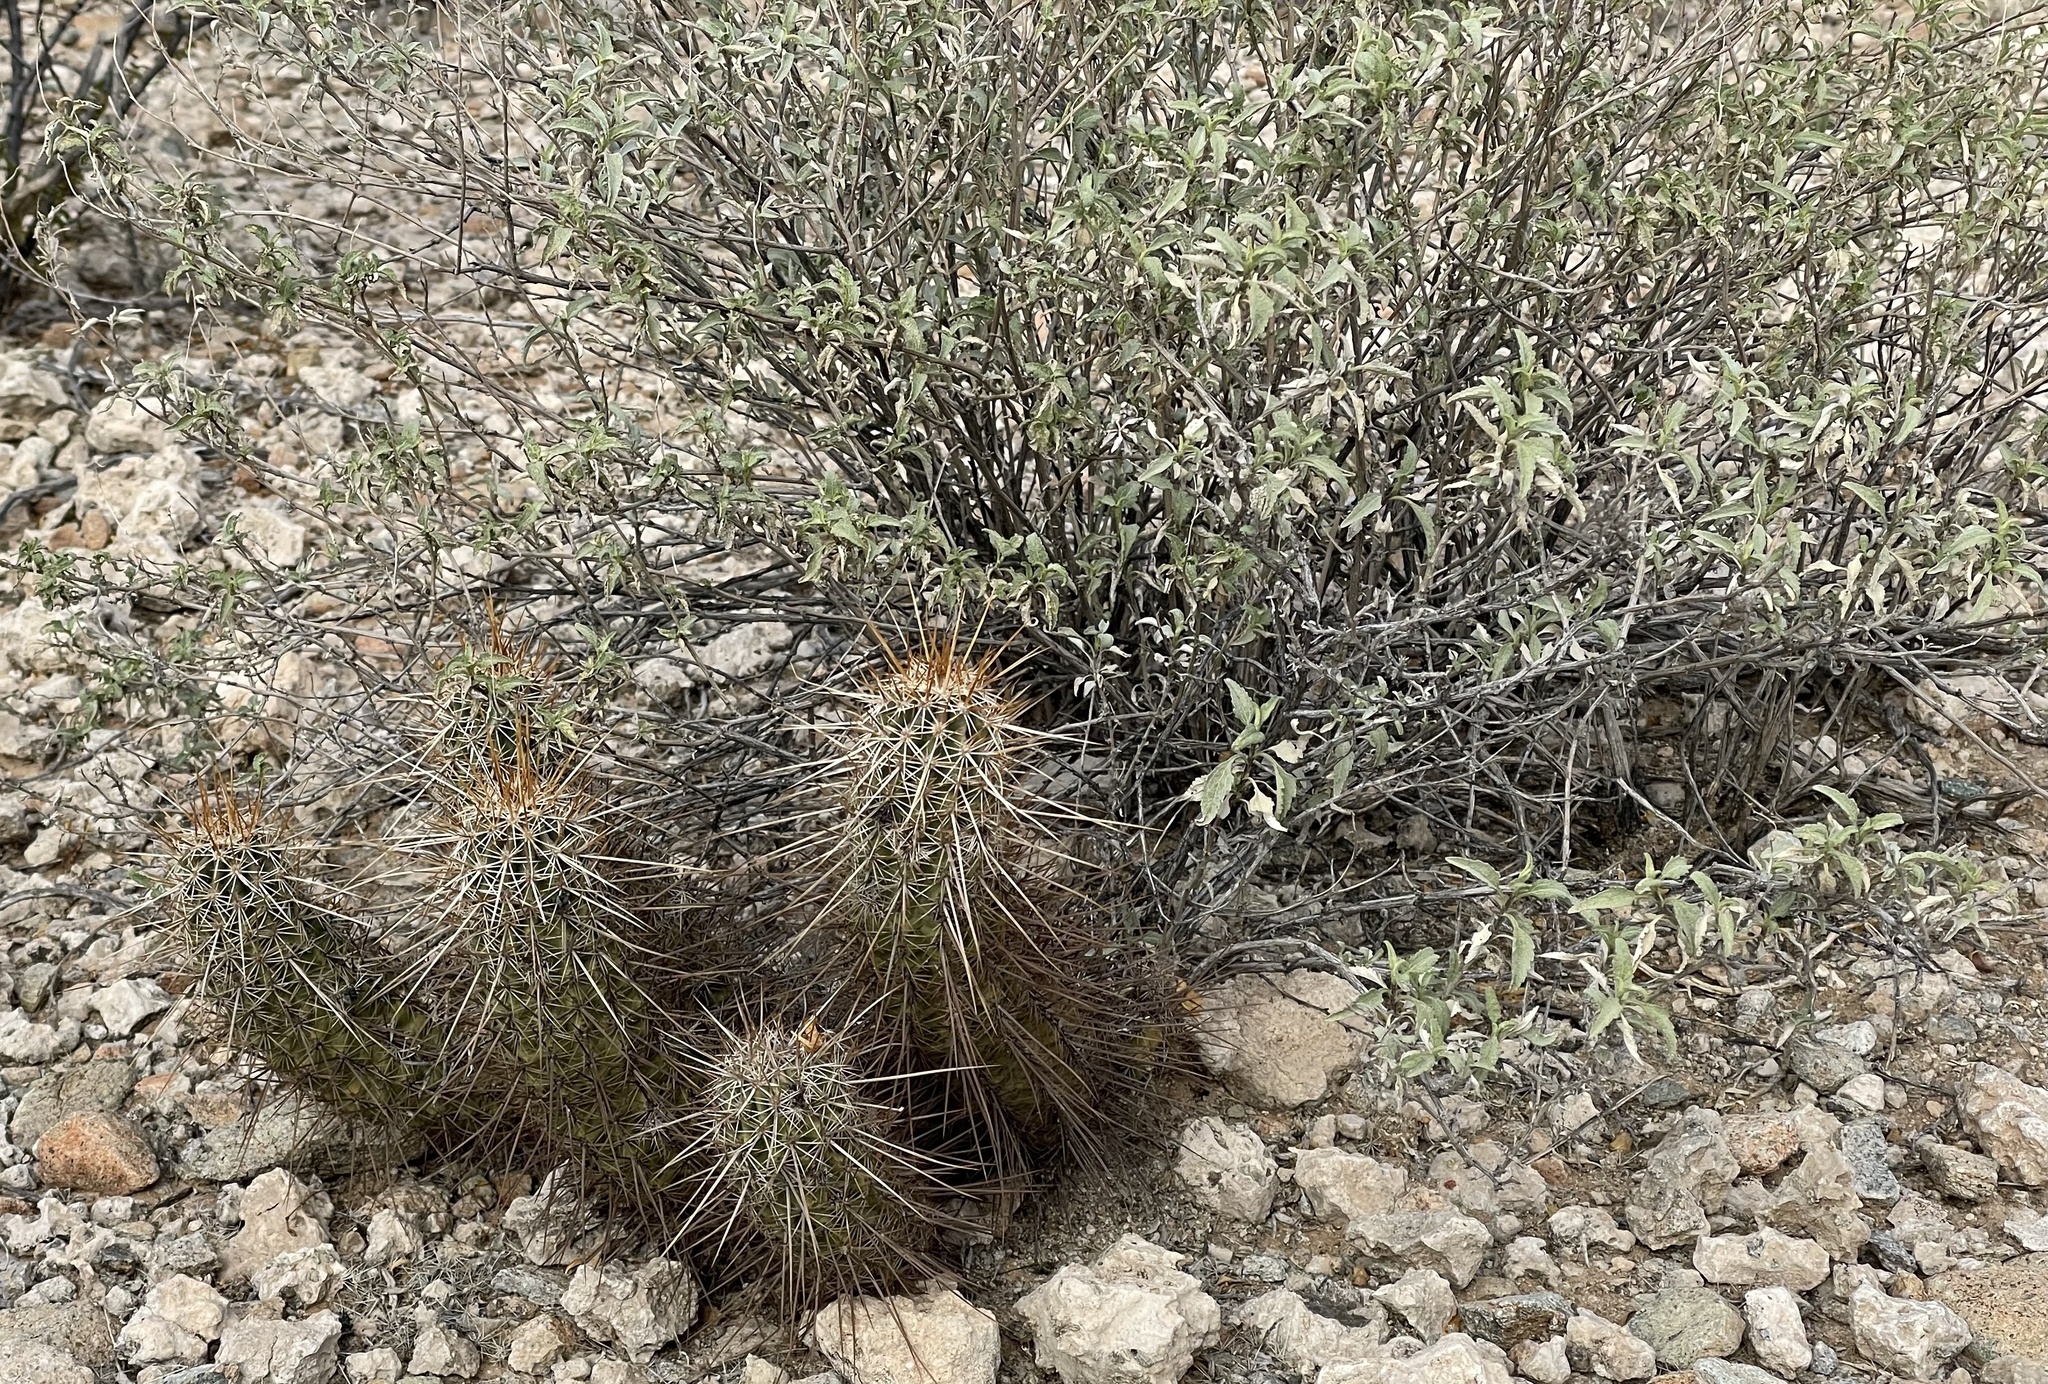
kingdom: Plantae
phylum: Tracheophyta
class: Magnoliopsida
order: Caryophyllales
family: Cactaceae
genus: Echinocereus
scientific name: Echinocereus engelmannii
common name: Engelmann's hedgehog cactus
